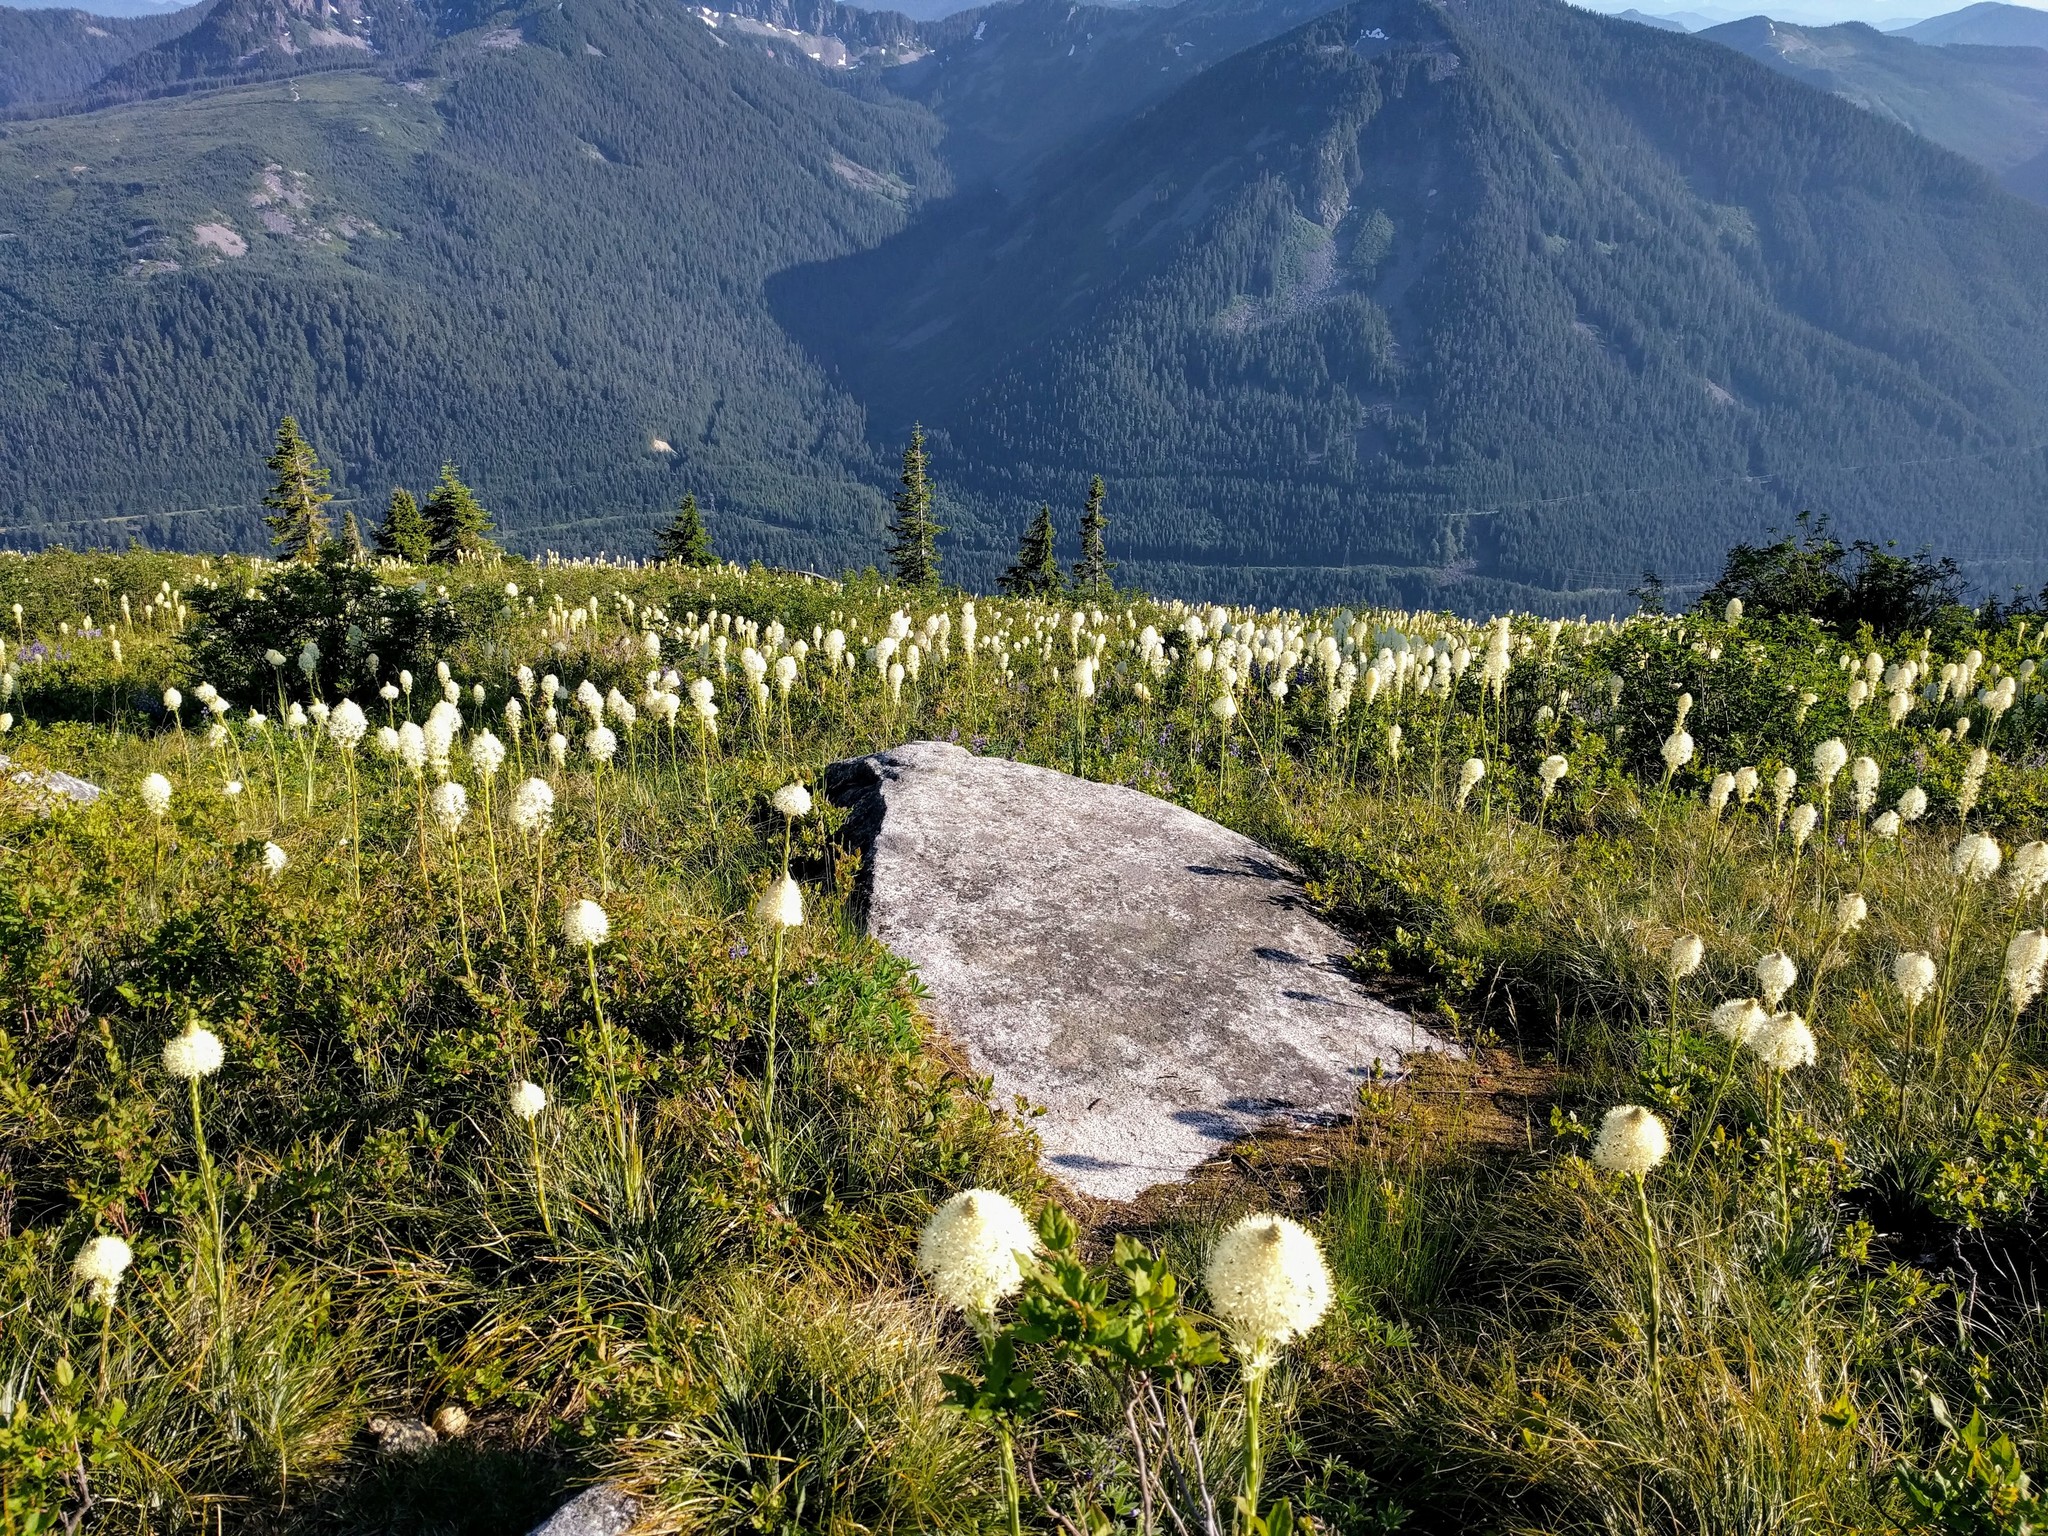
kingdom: Plantae
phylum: Tracheophyta
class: Liliopsida
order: Liliales
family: Melanthiaceae
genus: Xerophyllum
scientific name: Xerophyllum tenax
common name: Bear-grass
